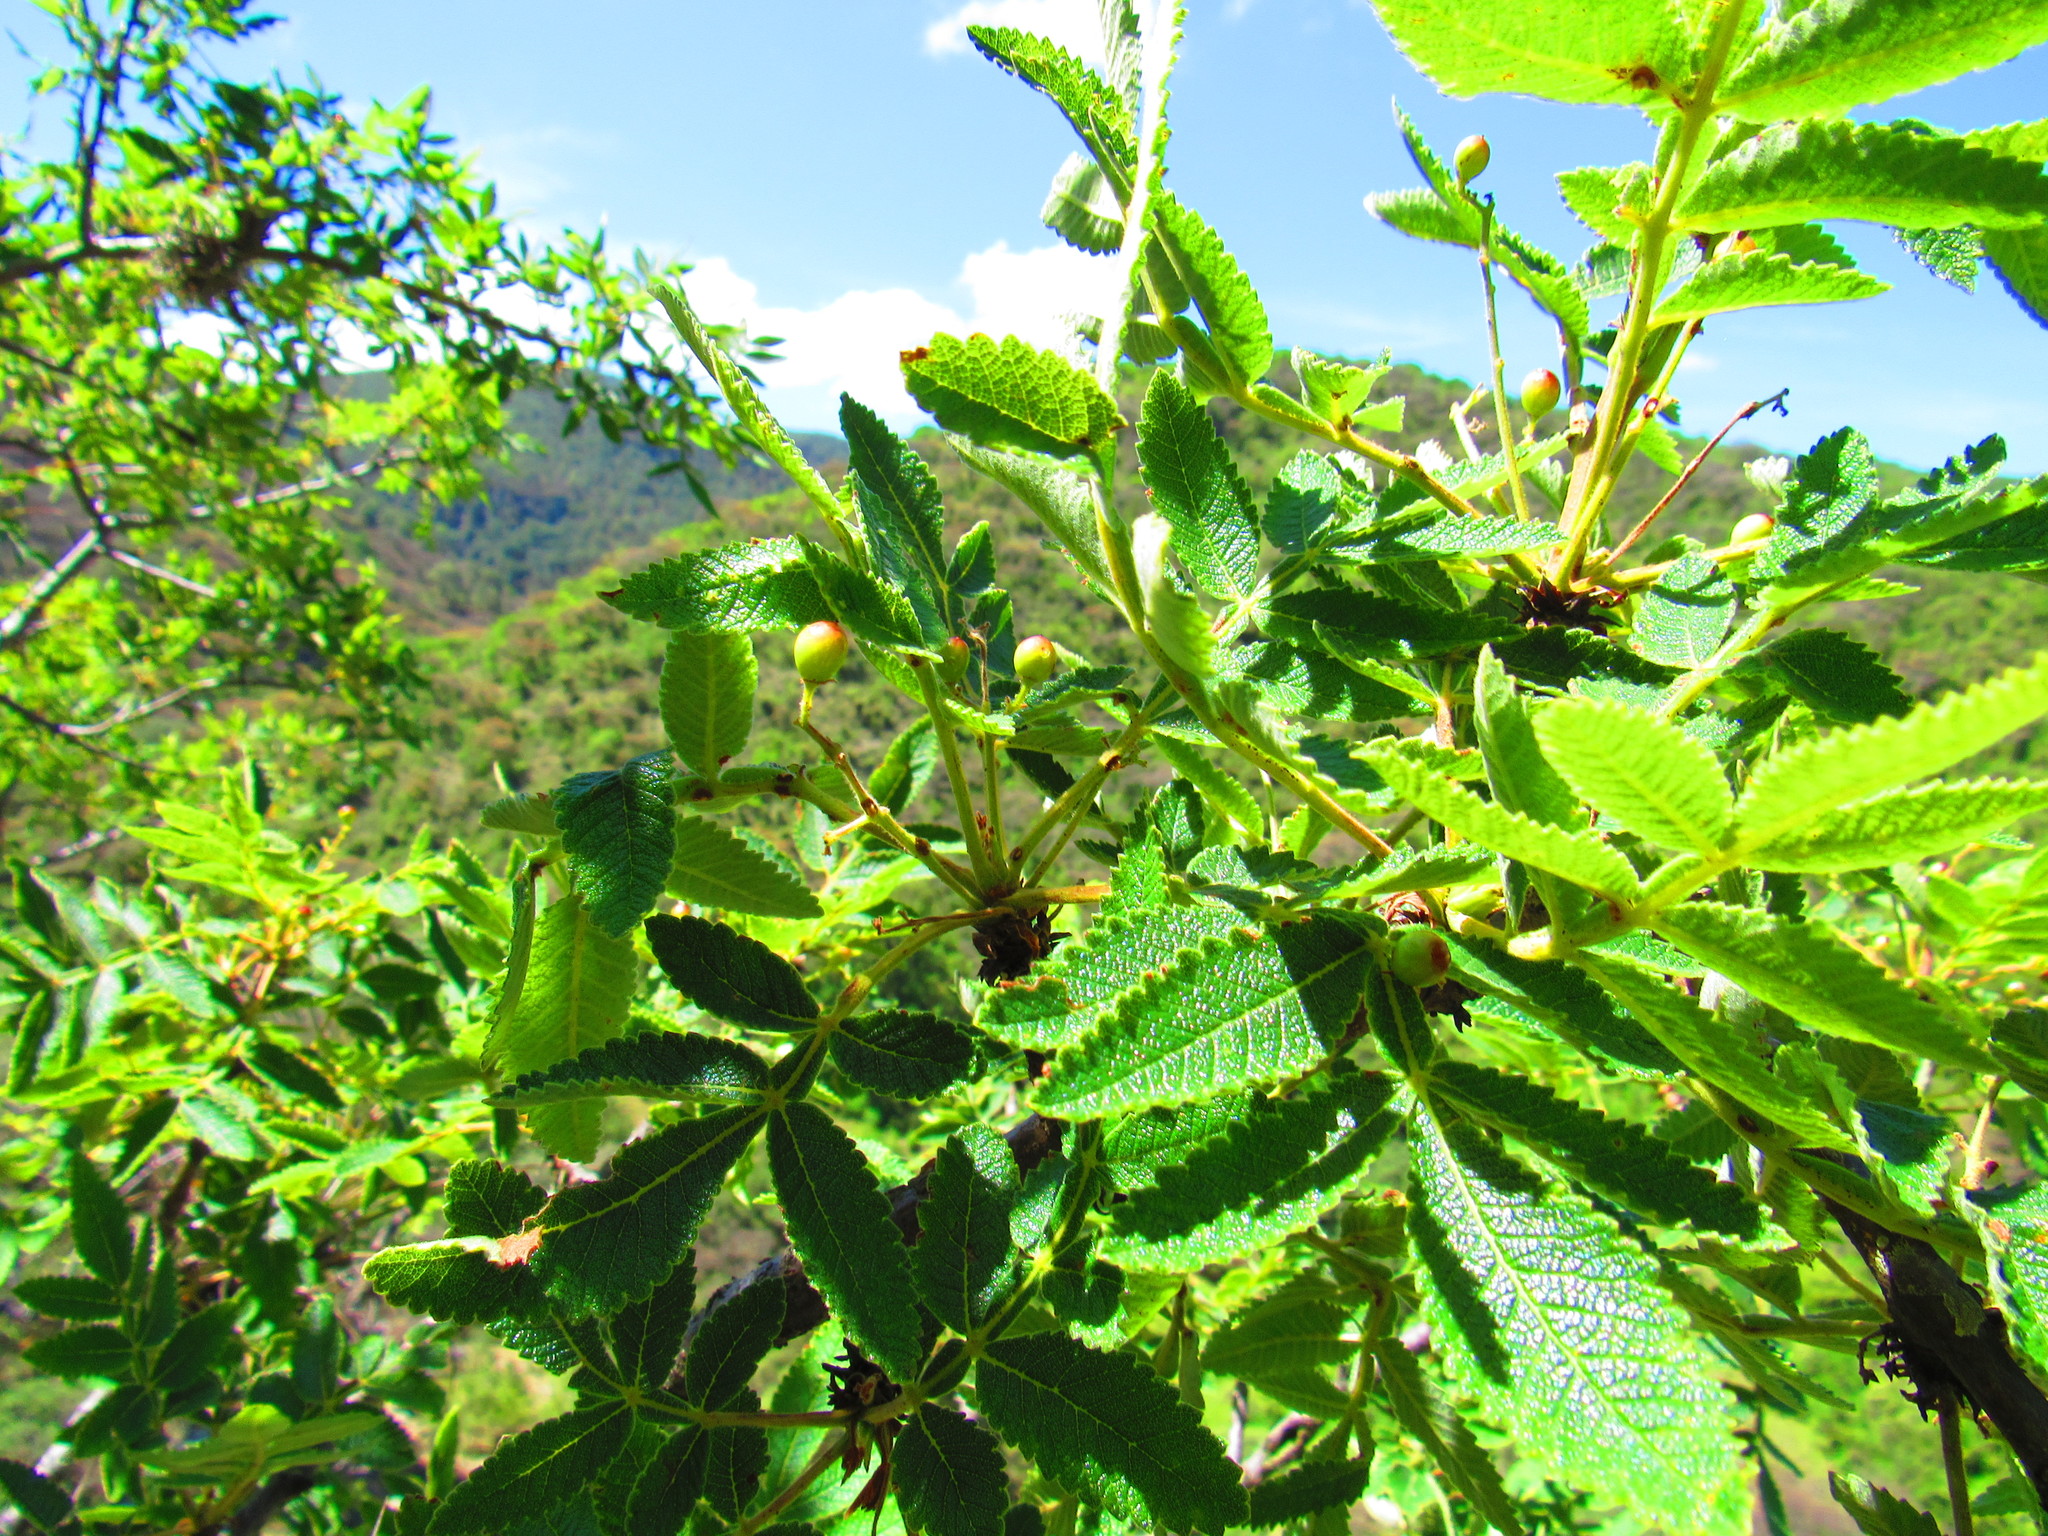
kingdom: Plantae
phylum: Tracheophyta
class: Magnoliopsida
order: Sapindales
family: Burseraceae
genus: Bursera
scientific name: Bursera cuneata
